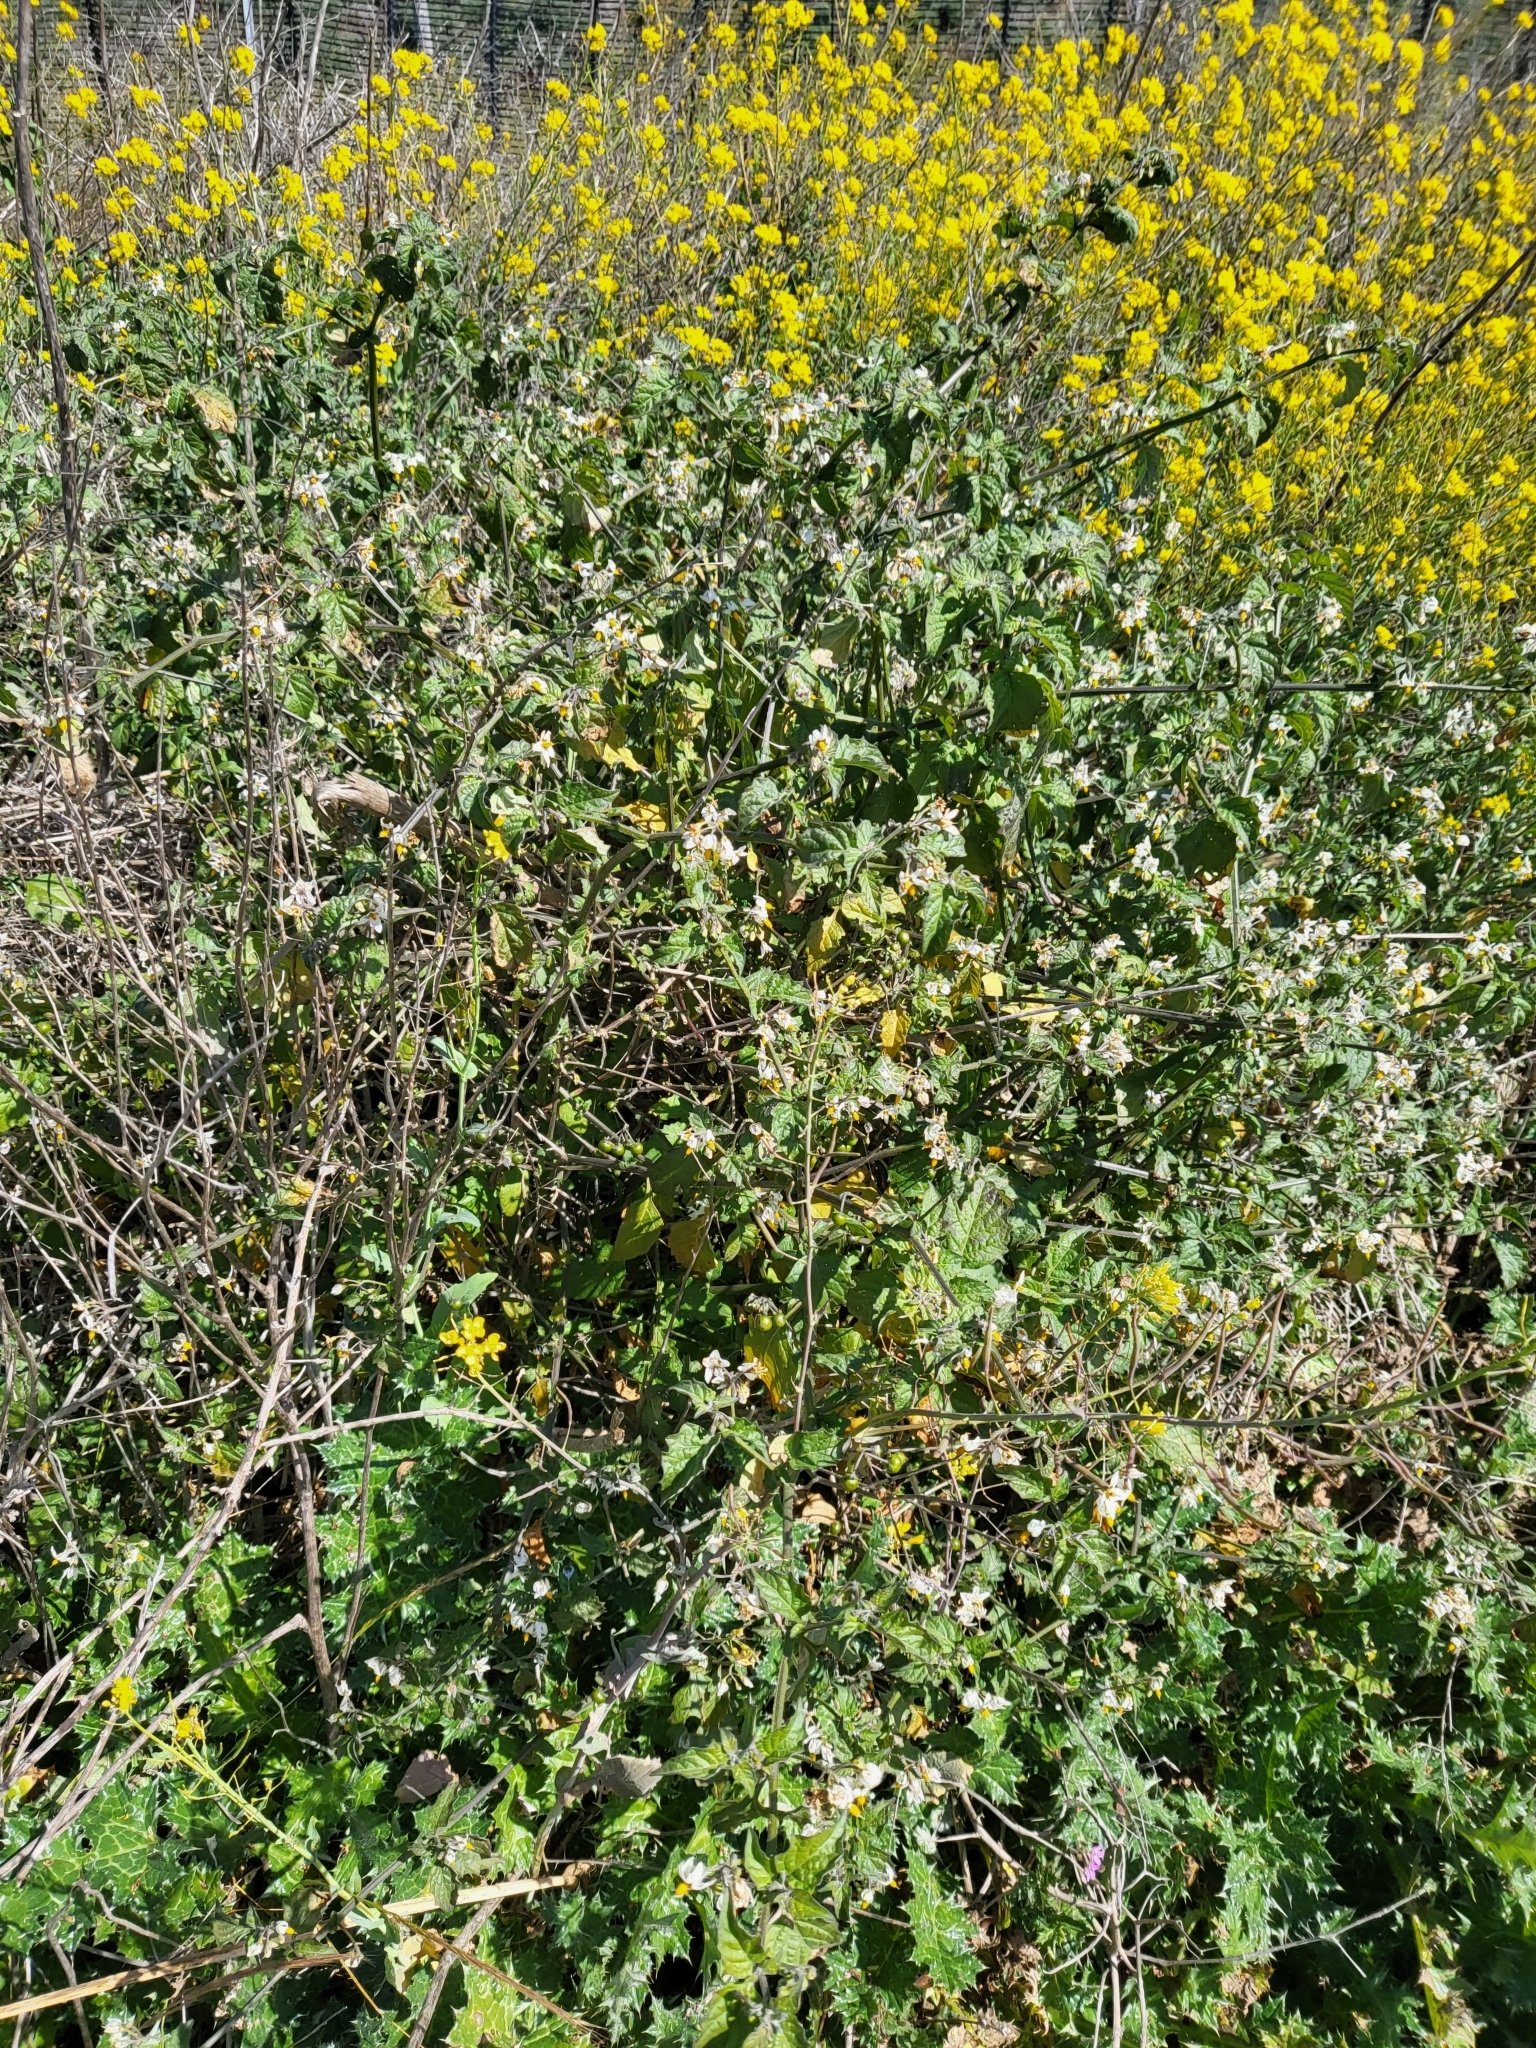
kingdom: Plantae
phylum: Tracheophyta
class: Magnoliopsida
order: Solanales
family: Solanaceae
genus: Solanum
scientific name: Solanum douglasii
